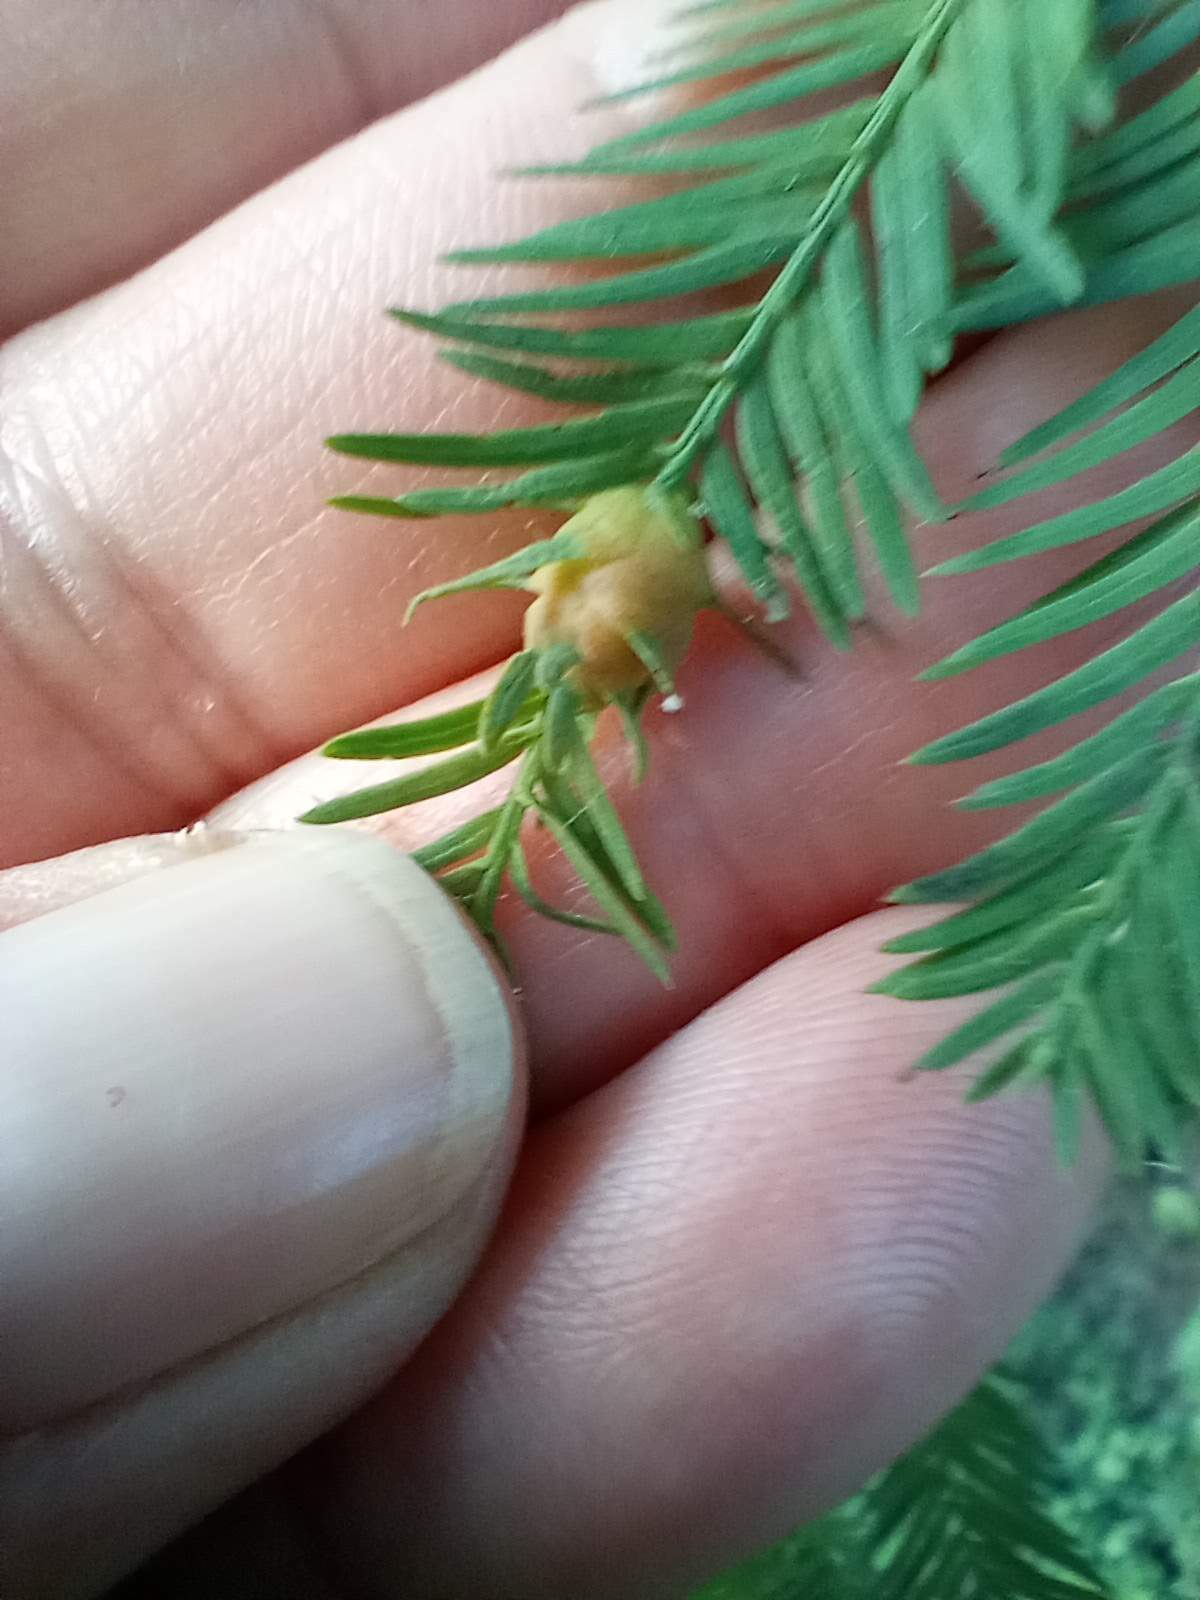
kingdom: Animalia
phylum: Arthropoda
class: Insecta
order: Diptera
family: Cecidomyiidae
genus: Taxodiomyia
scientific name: Taxodiomyia cupressiananassa
